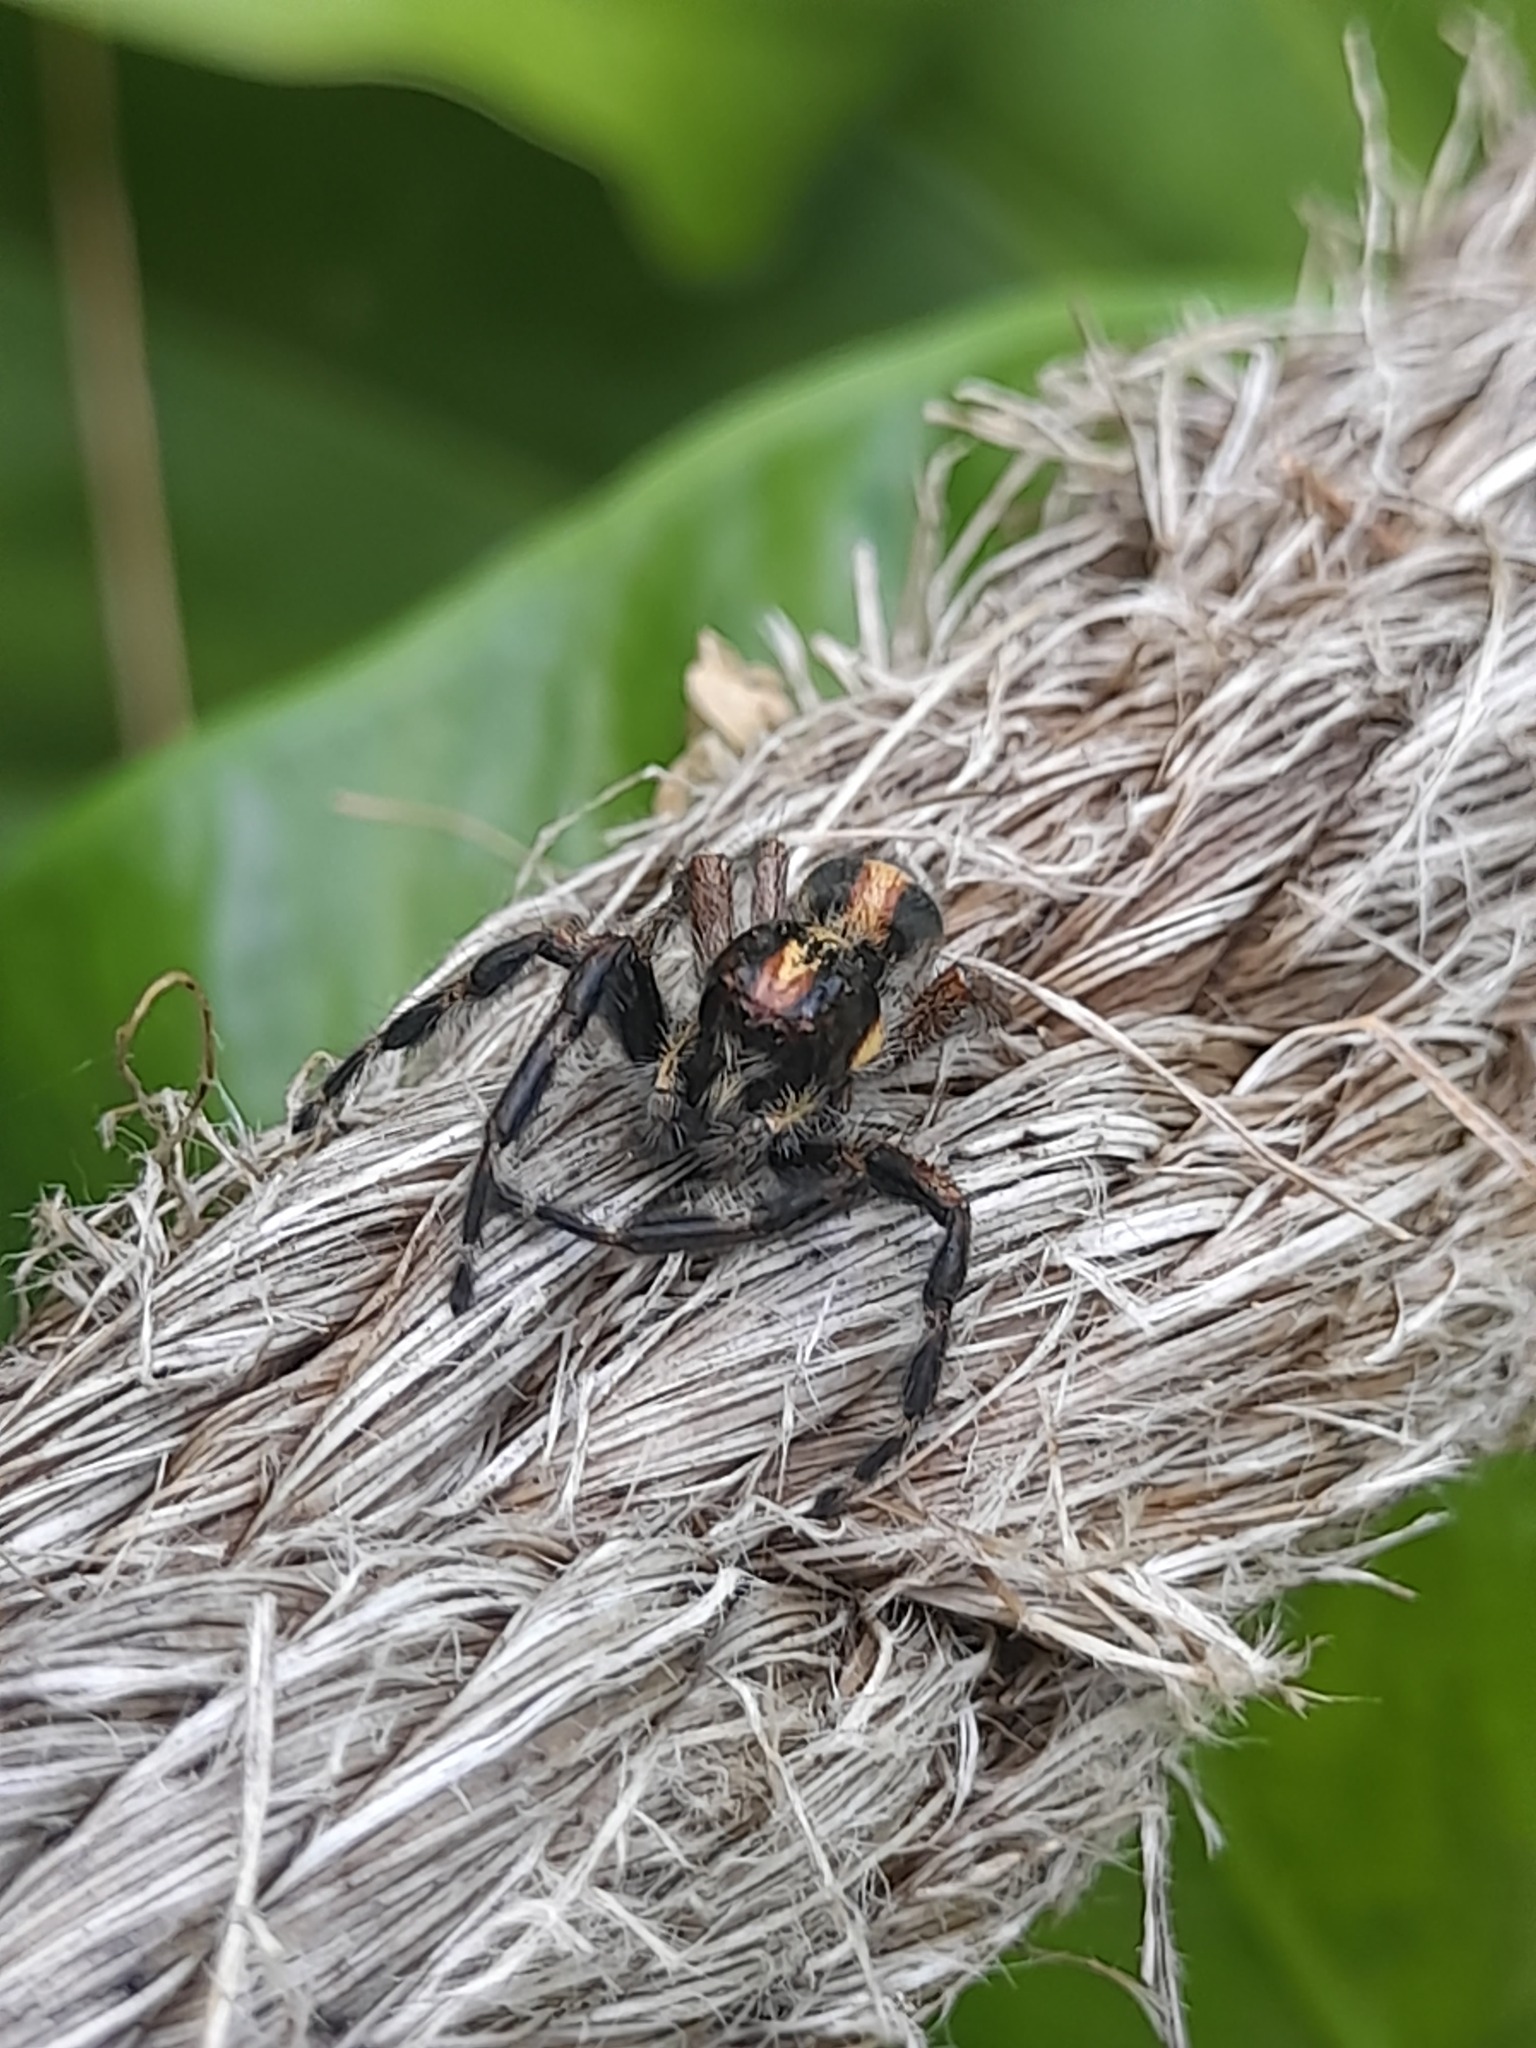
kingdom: Animalia
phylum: Arthropoda
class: Arachnida
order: Araneae
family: Salticidae
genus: Megafreya
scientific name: Megafreya sutrix
